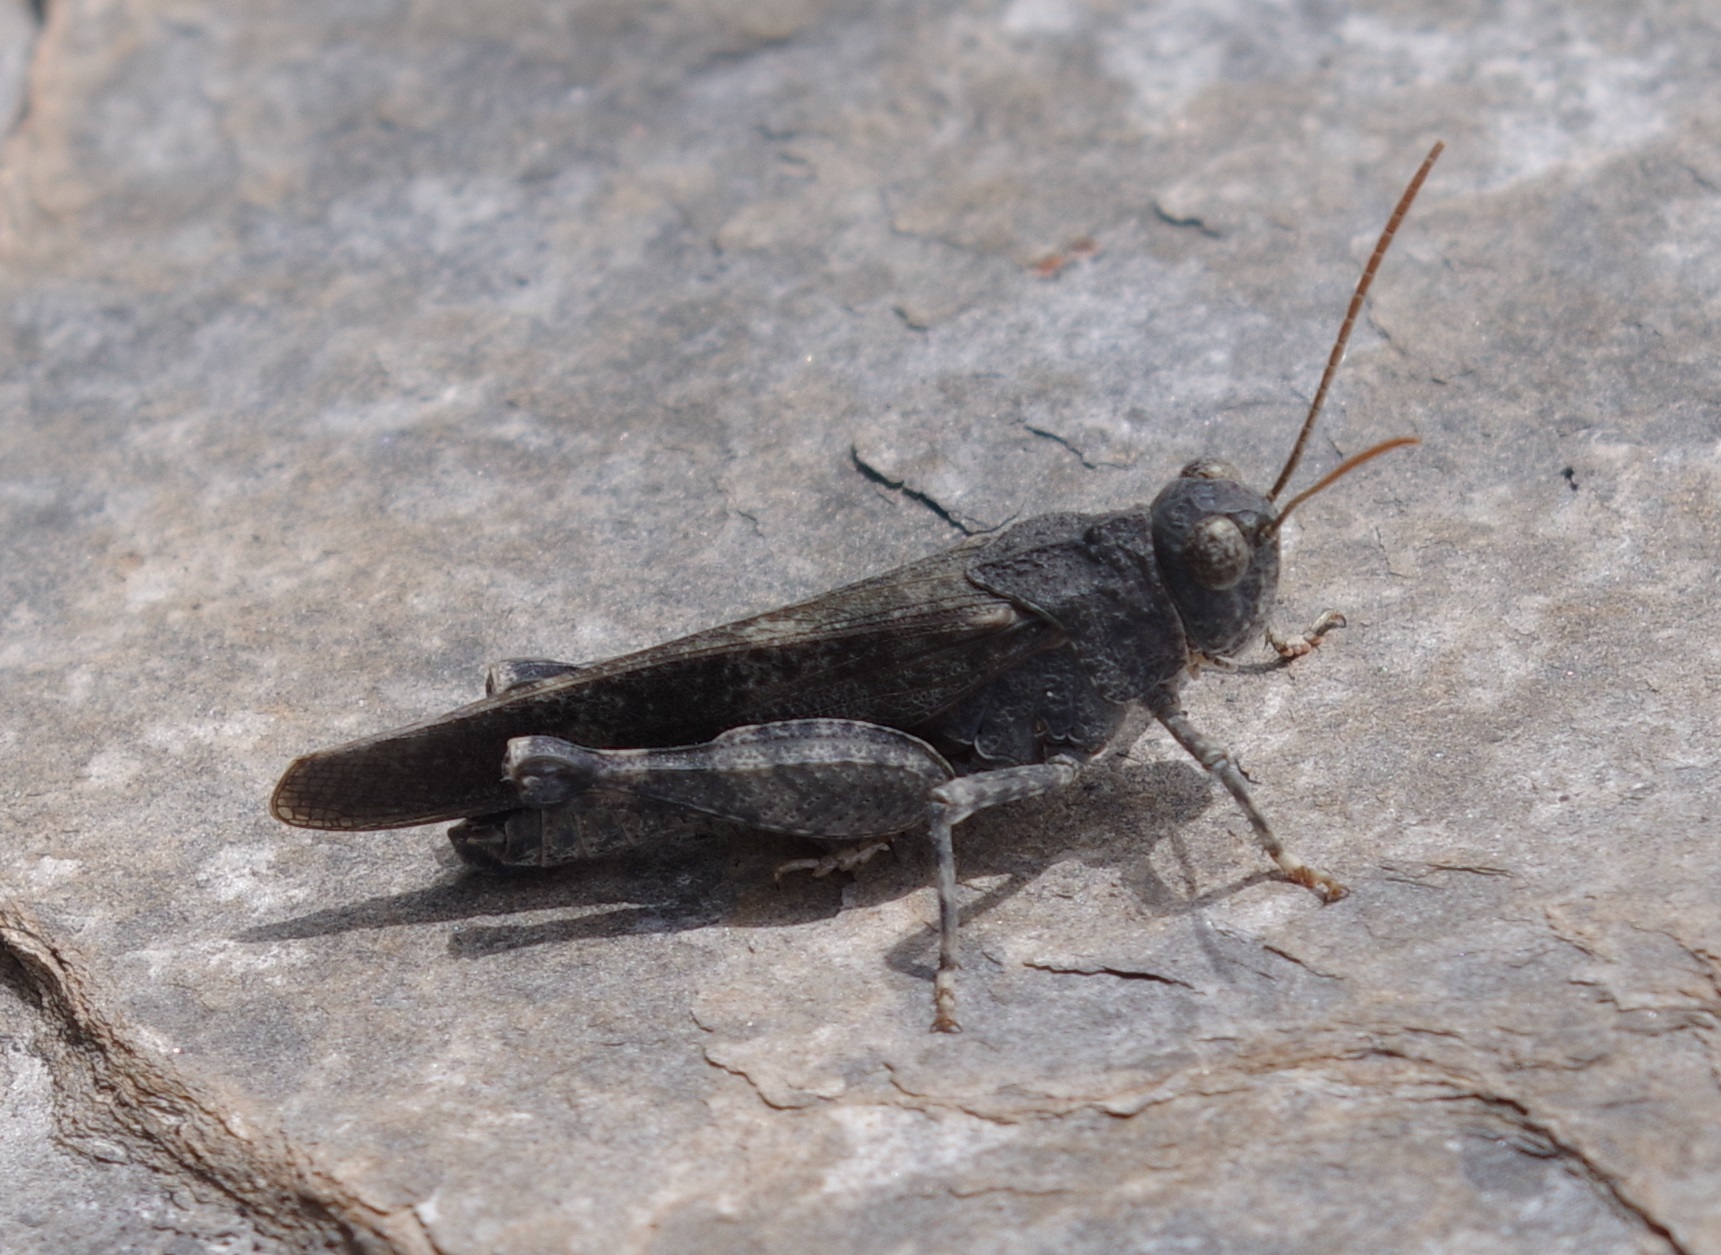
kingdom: Animalia
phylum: Arthropoda
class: Insecta
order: Orthoptera
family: Acrididae
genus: Oedipoda
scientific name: Oedipoda germanica
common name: Red band-winged grasshopper
